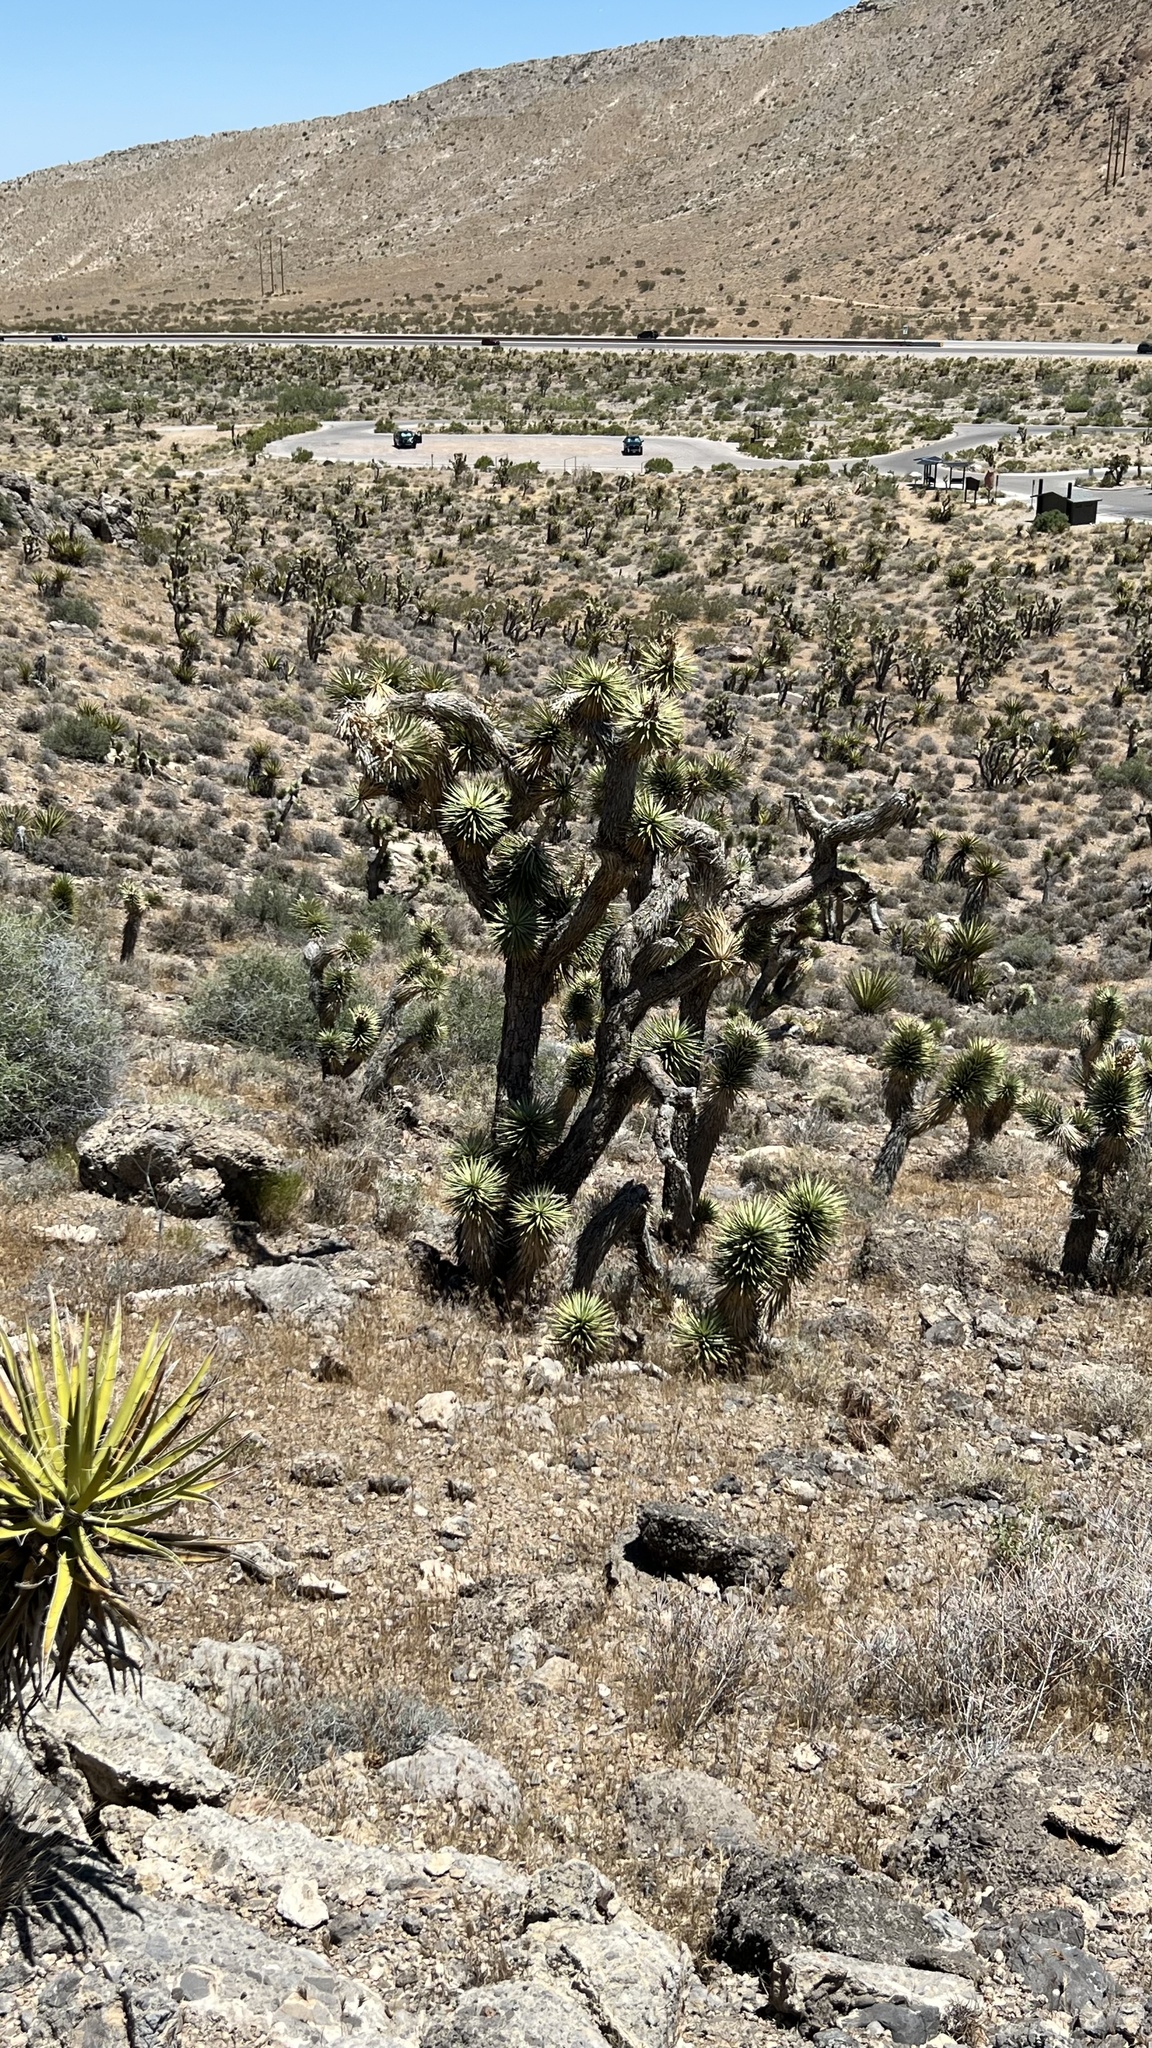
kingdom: Plantae
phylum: Tracheophyta
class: Liliopsida
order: Asparagales
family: Asparagaceae
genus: Yucca
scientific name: Yucca brevifolia
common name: Joshua tree
